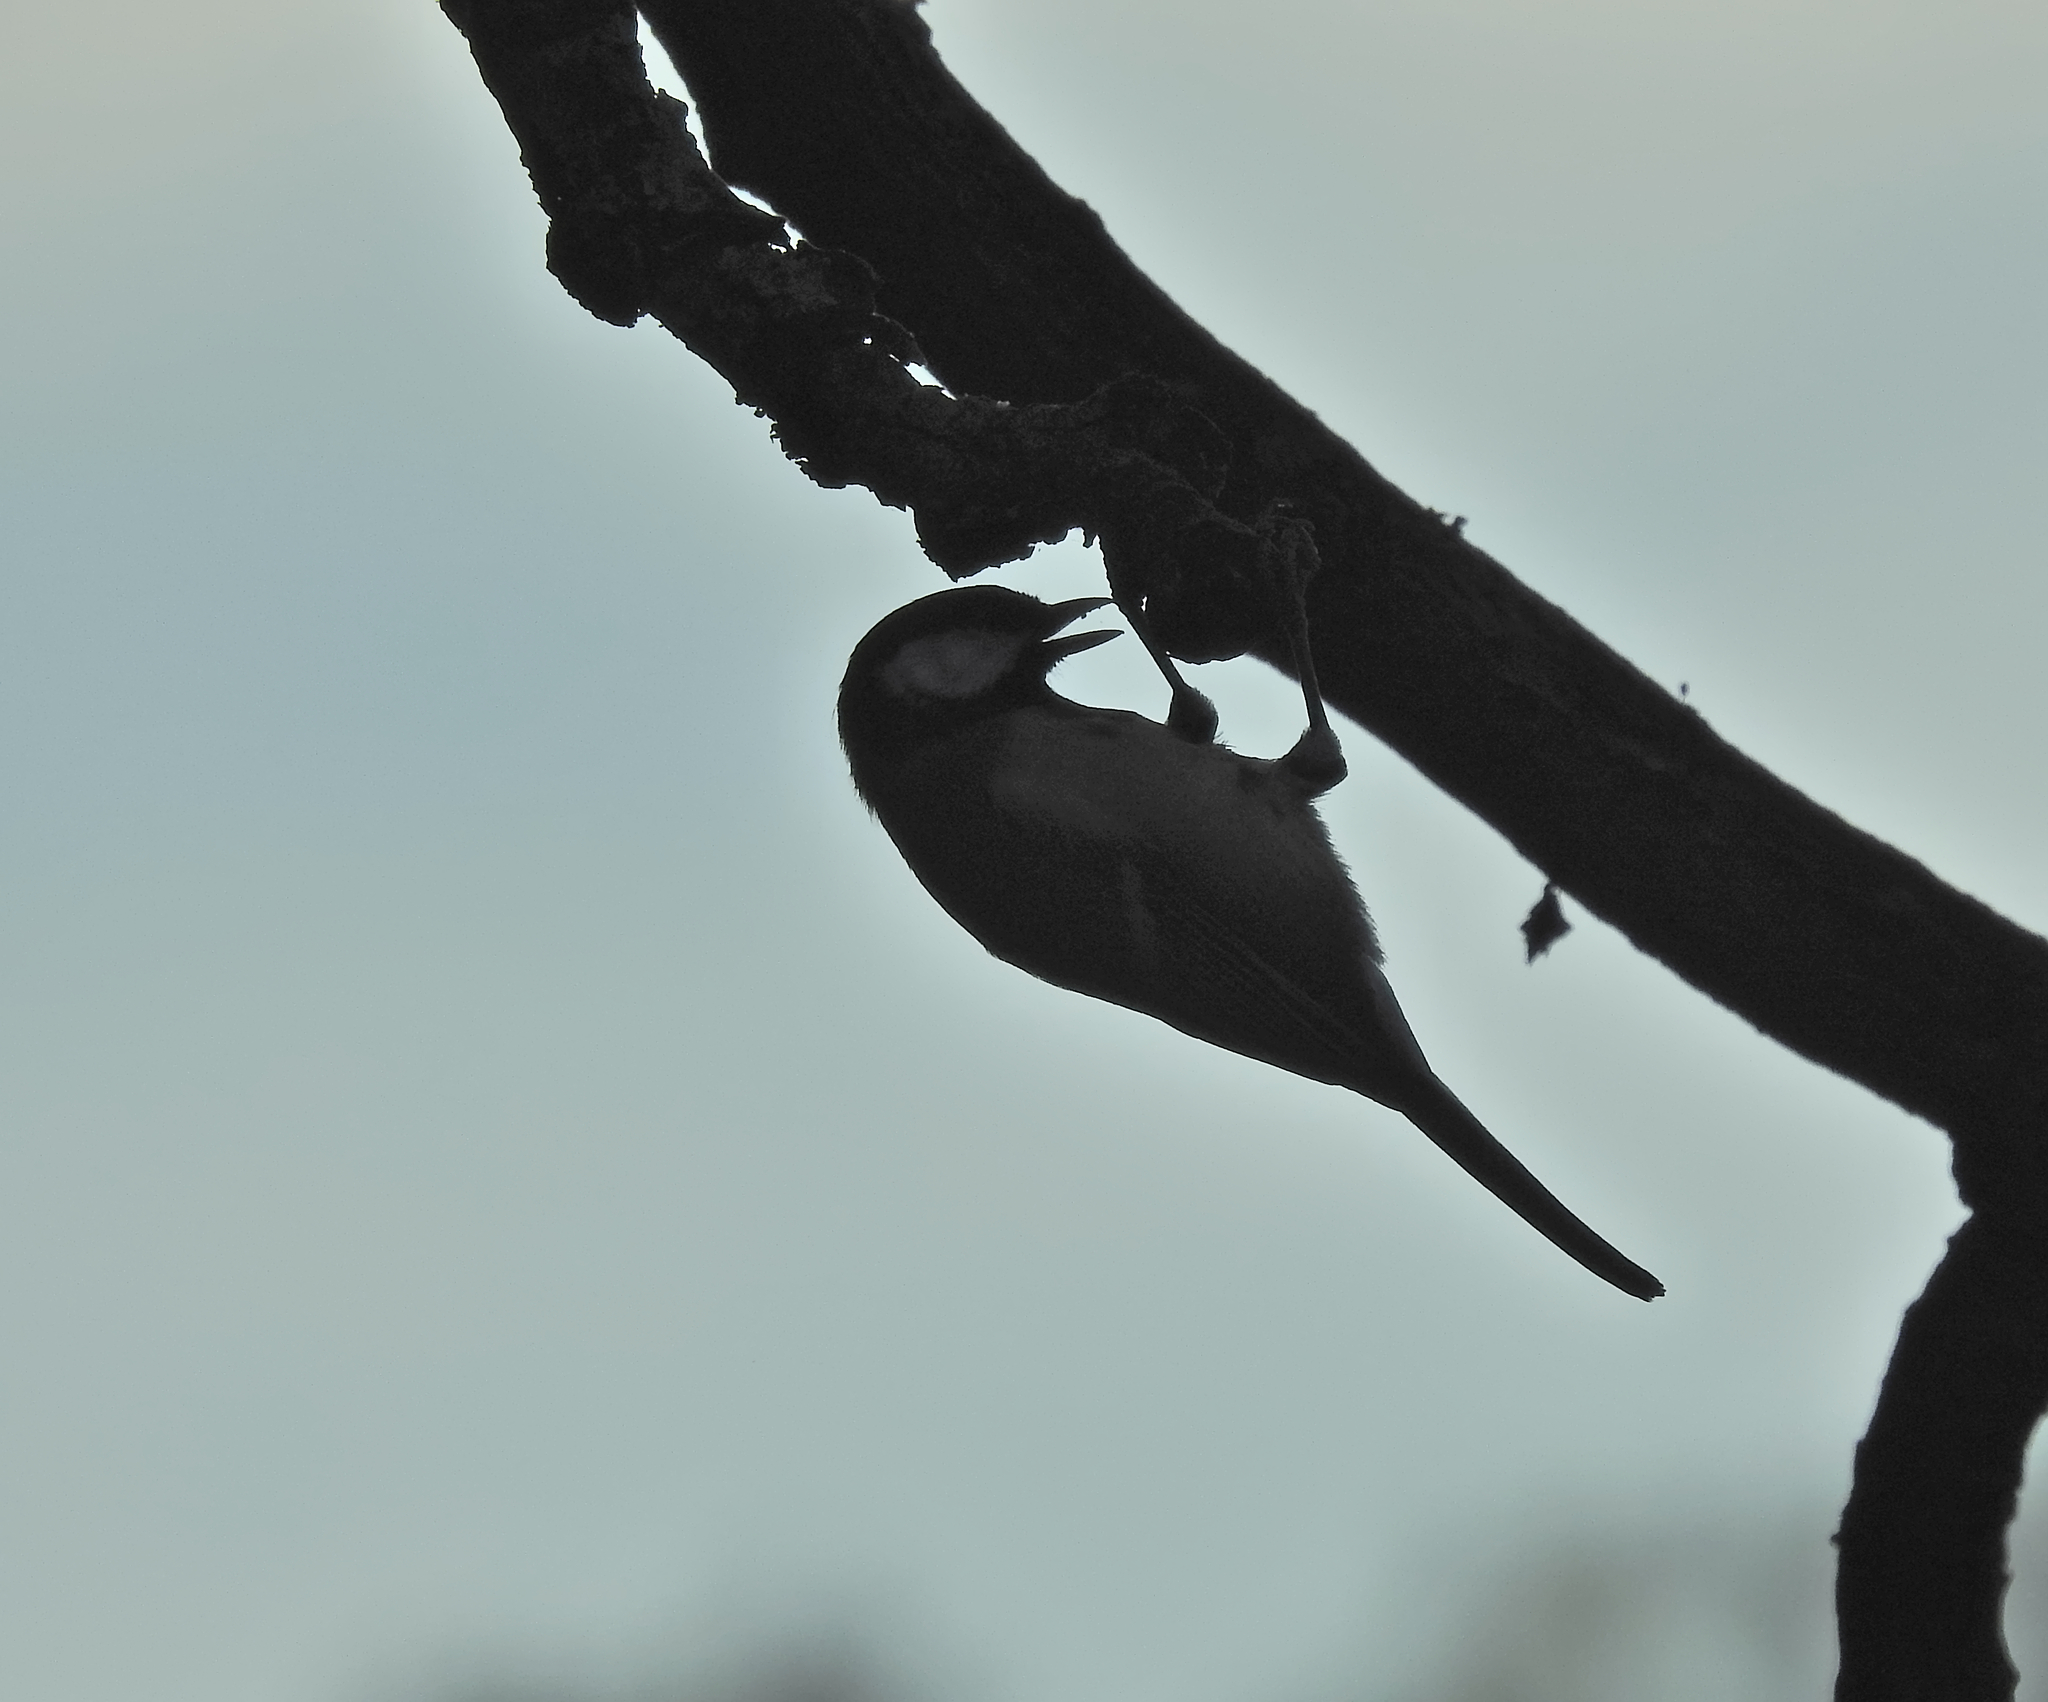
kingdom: Animalia
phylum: Chordata
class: Aves
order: Passeriformes
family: Paridae
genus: Parus
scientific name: Parus major
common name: Great tit
